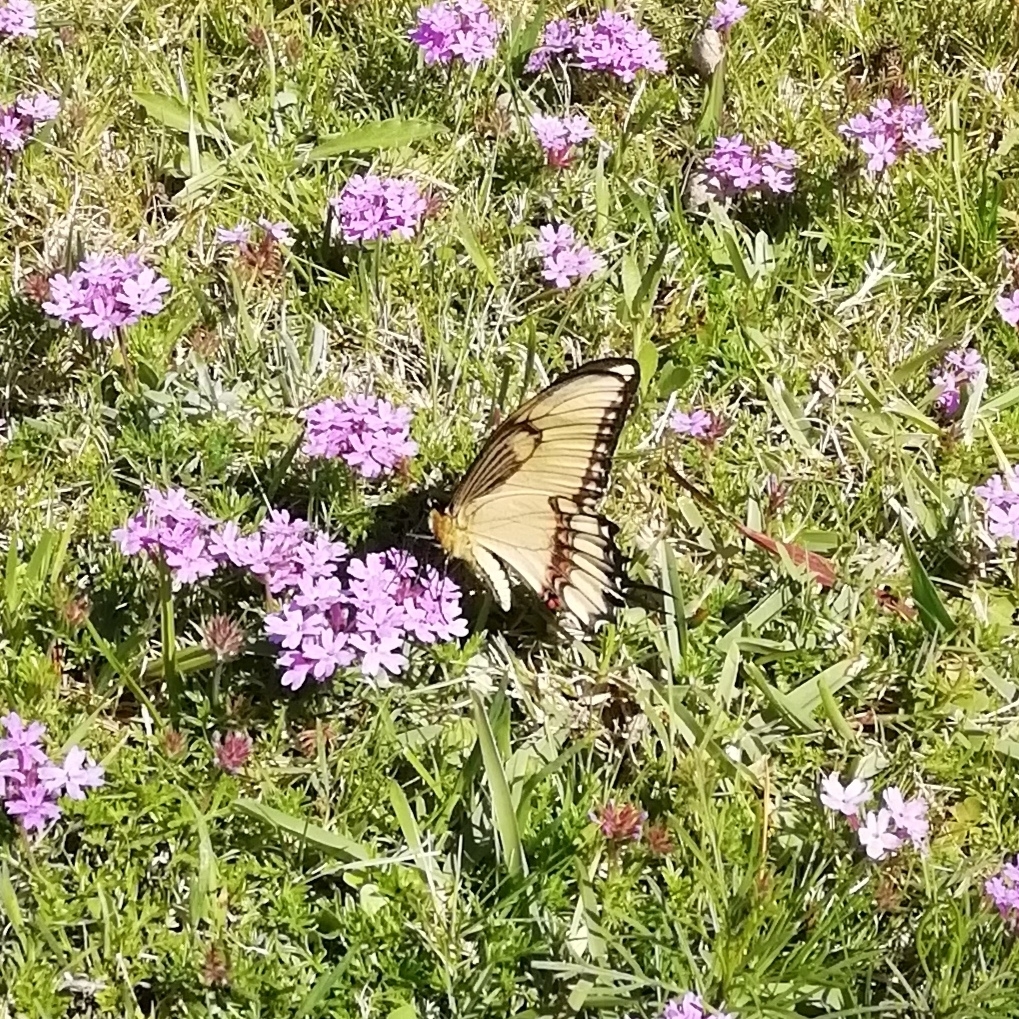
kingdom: Animalia
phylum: Arthropoda
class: Insecta
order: Lepidoptera
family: Papilionidae
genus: Papilio
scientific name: Papilio astyalus
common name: Astyalus swallowtail
